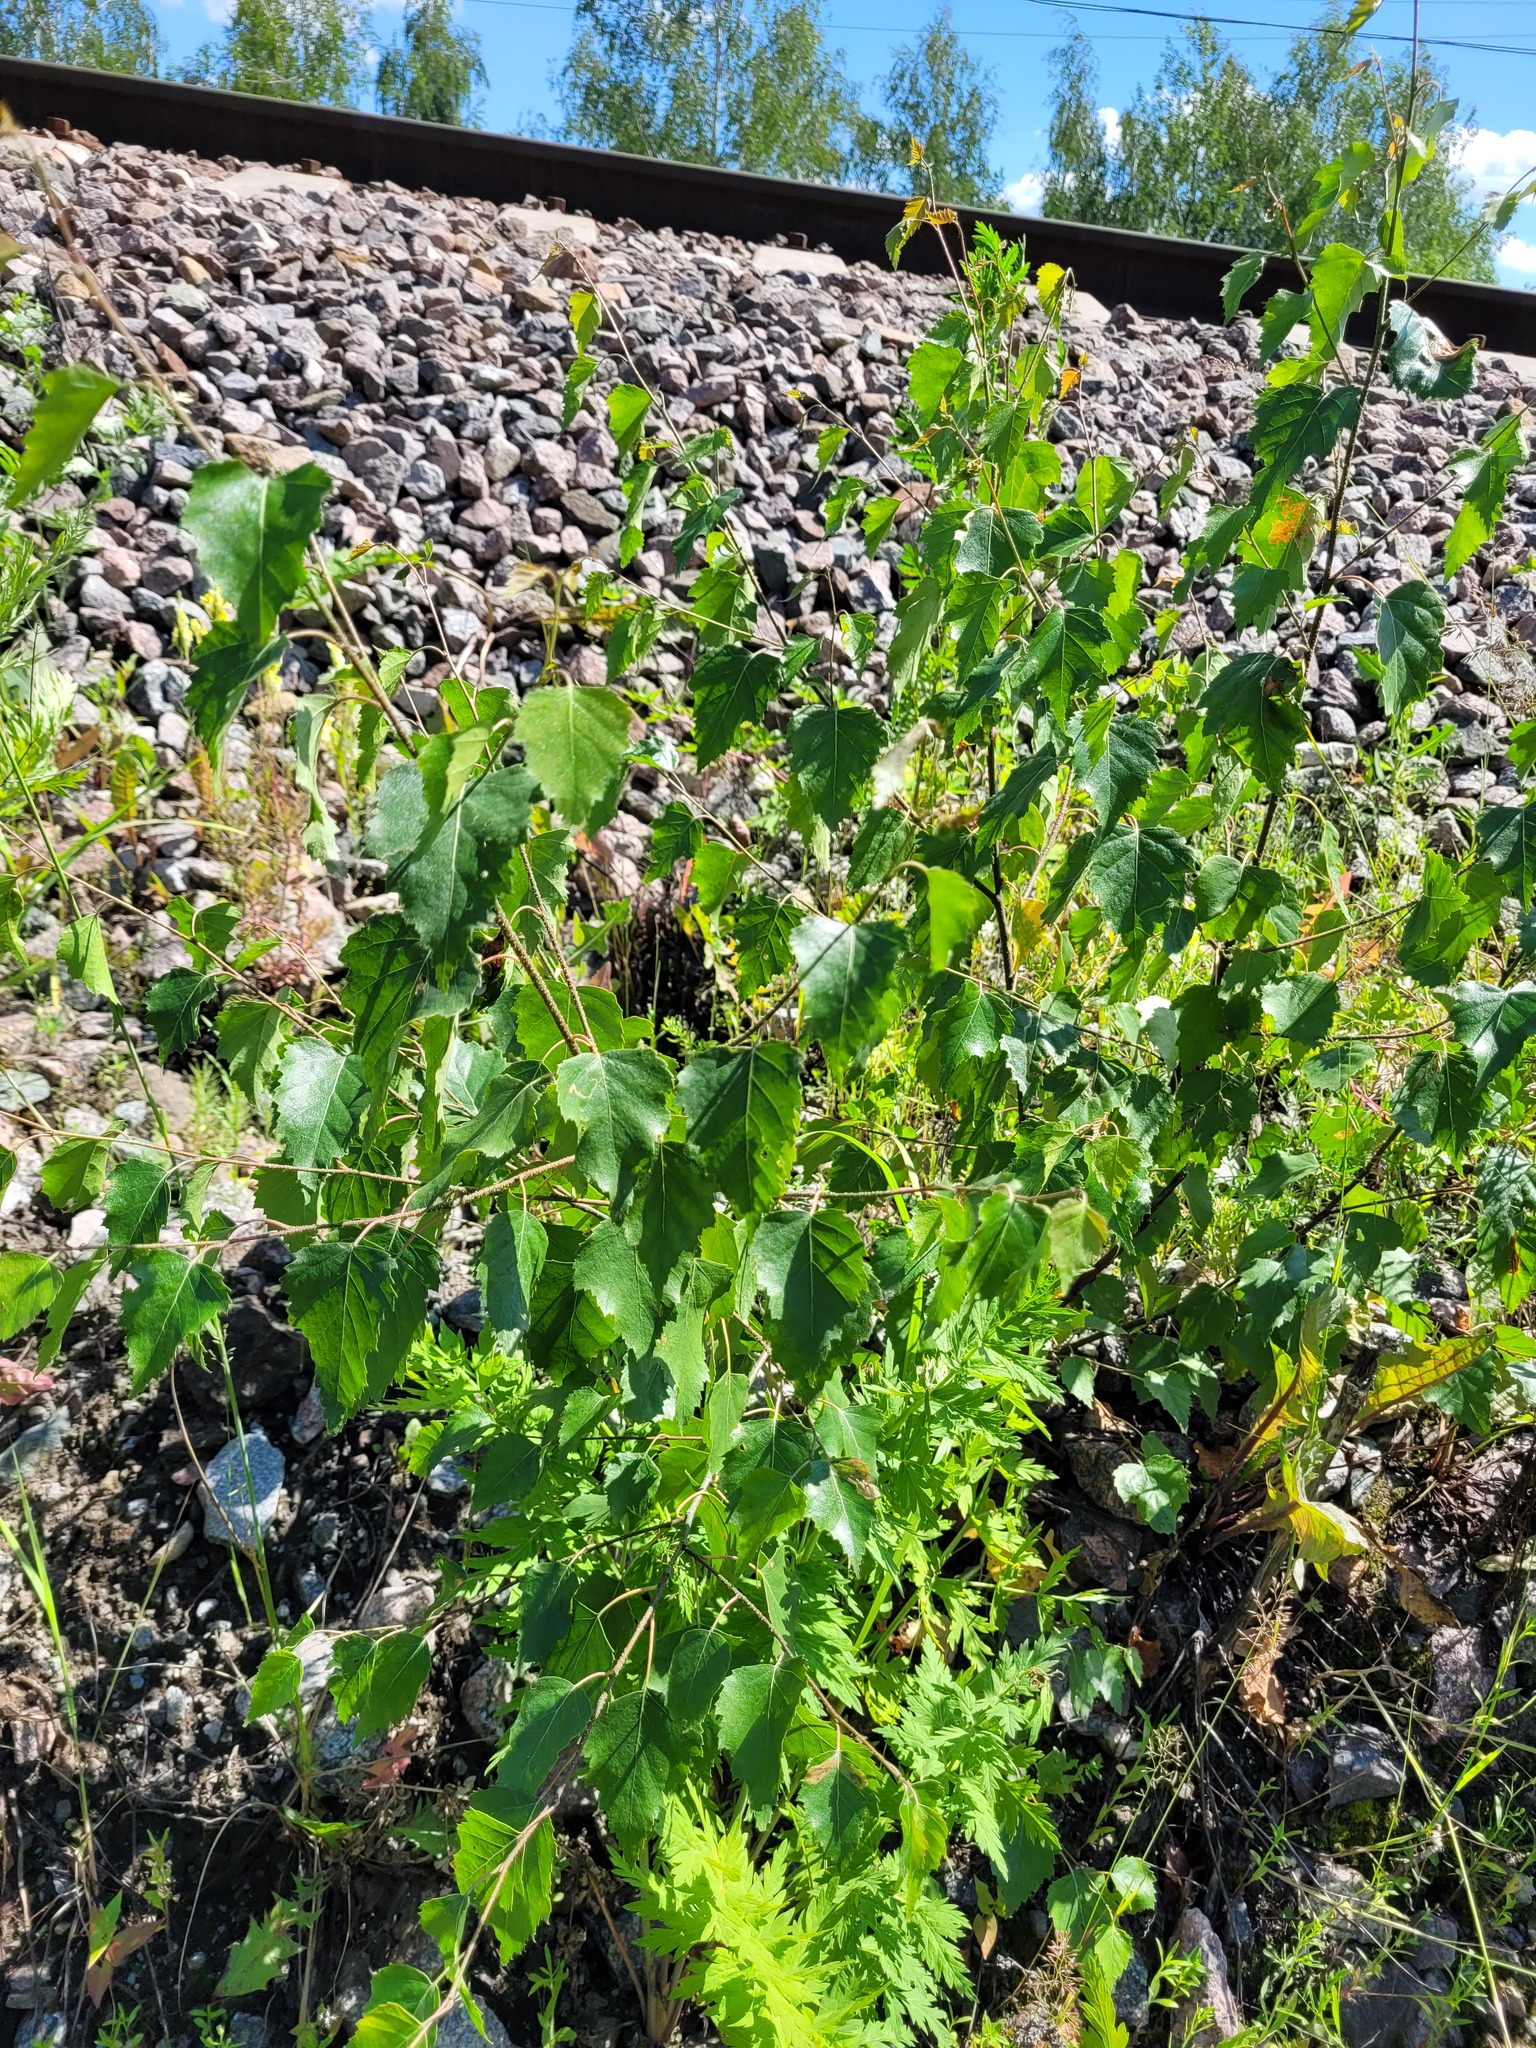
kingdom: Plantae
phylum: Tracheophyta
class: Magnoliopsida
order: Fagales
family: Betulaceae
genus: Betula
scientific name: Betula pendula
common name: Silver birch
